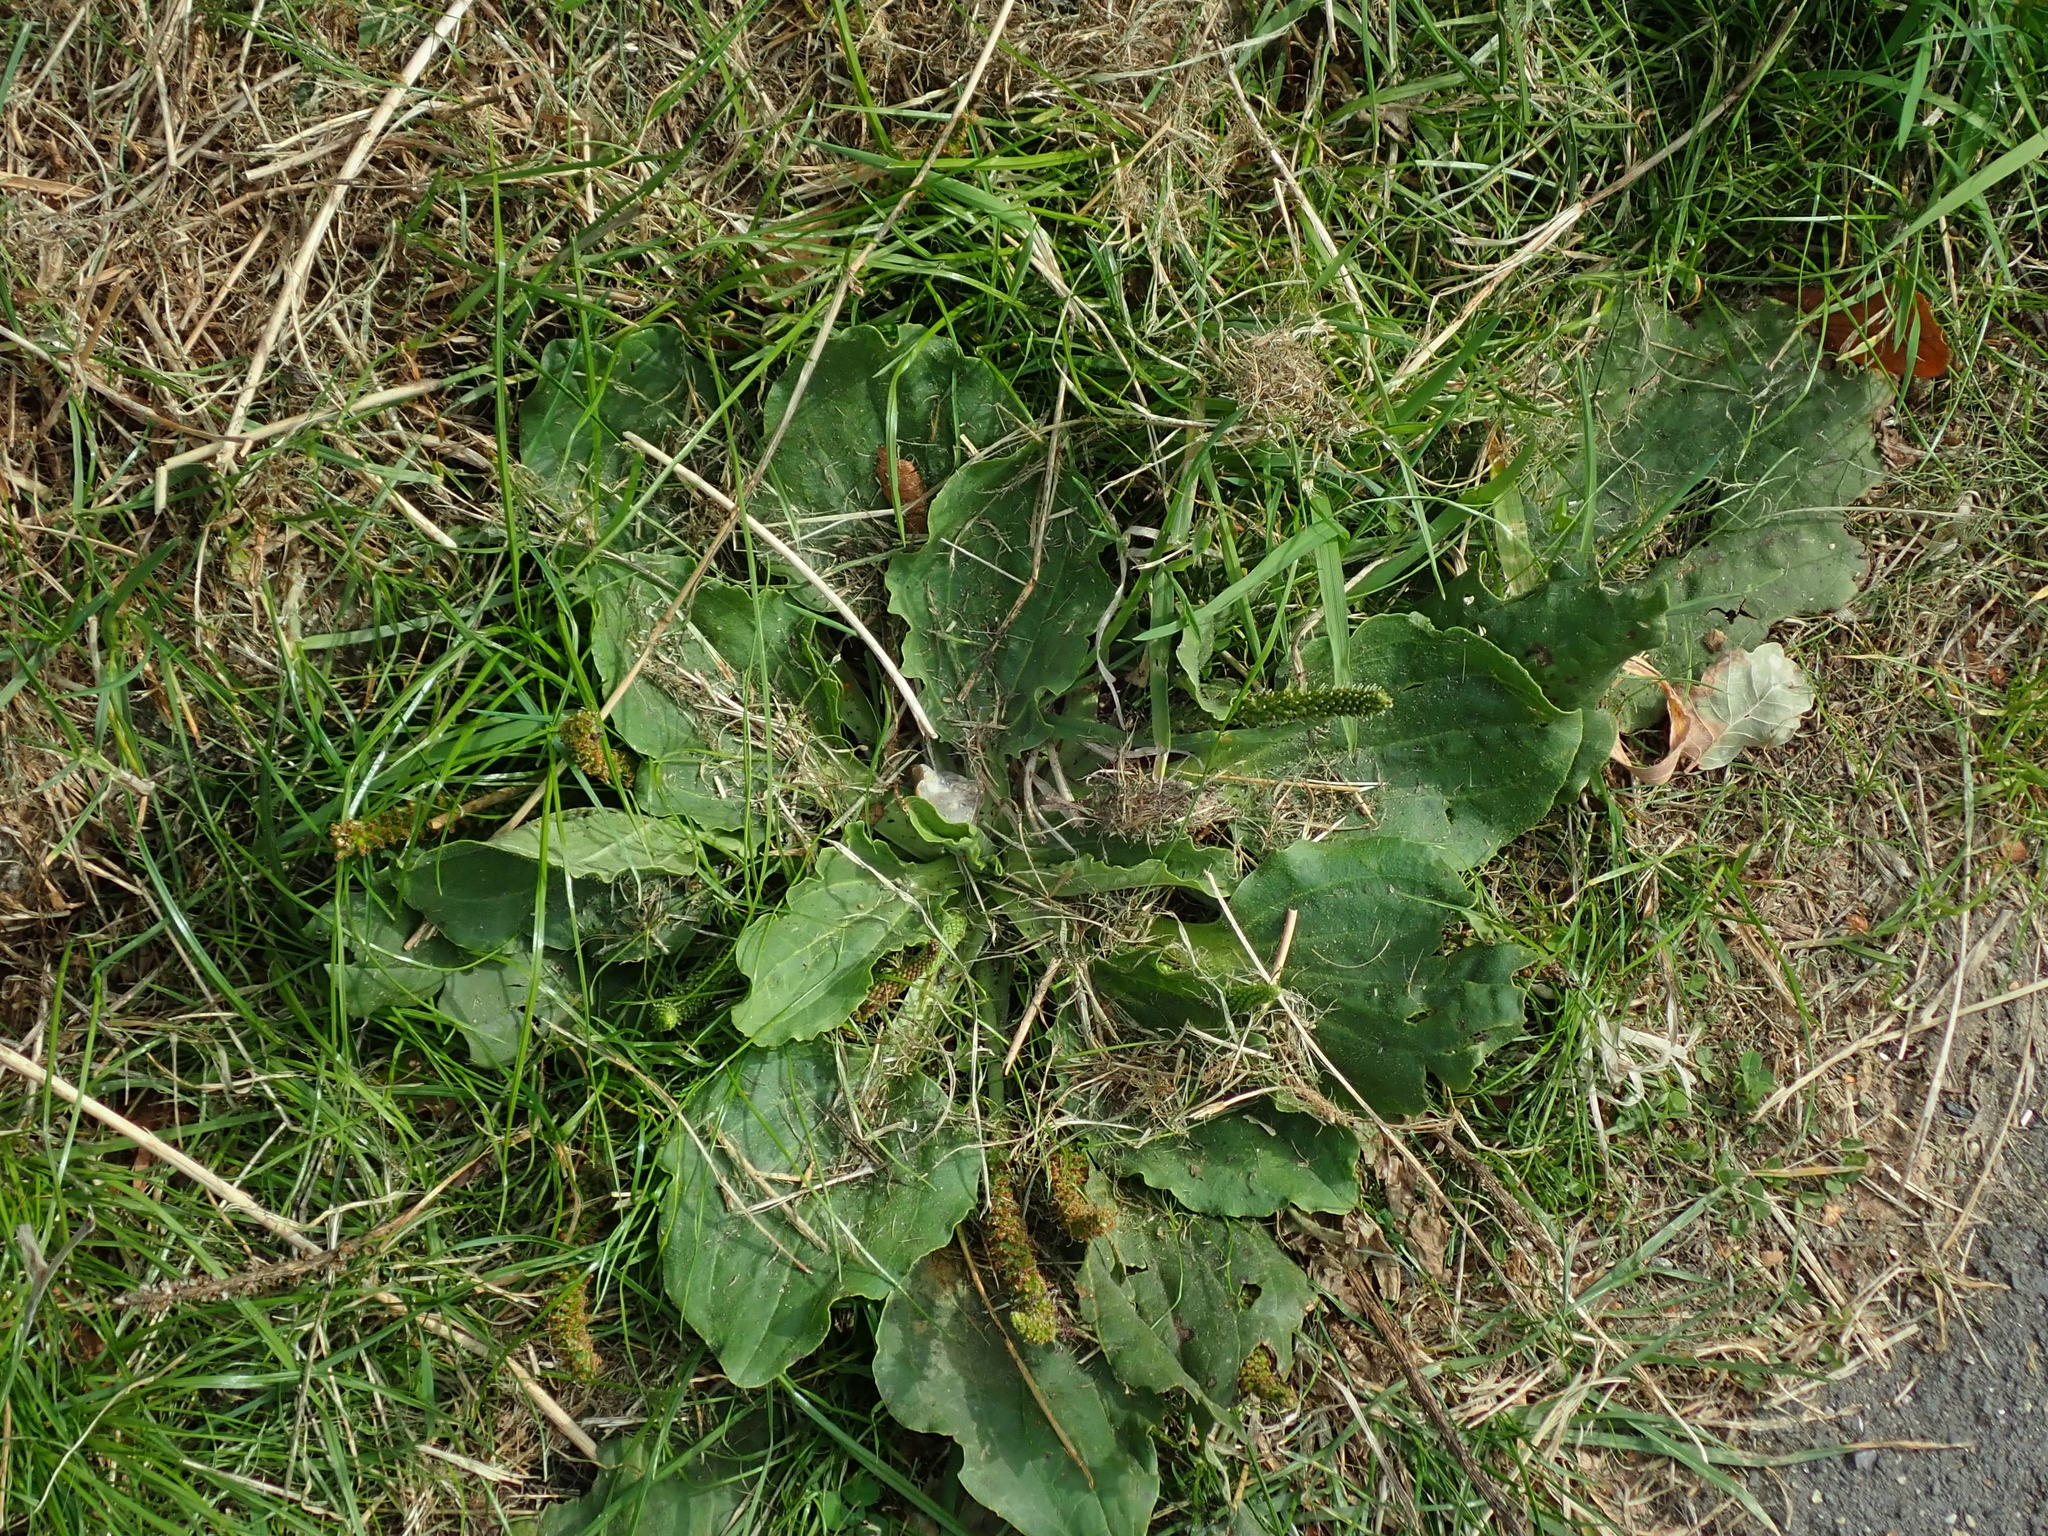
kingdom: Plantae
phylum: Tracheophyta
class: Magnoliopsida
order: Lamiales
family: Plantaginaceae
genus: Plantago
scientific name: Plantago major
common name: Common plantain
